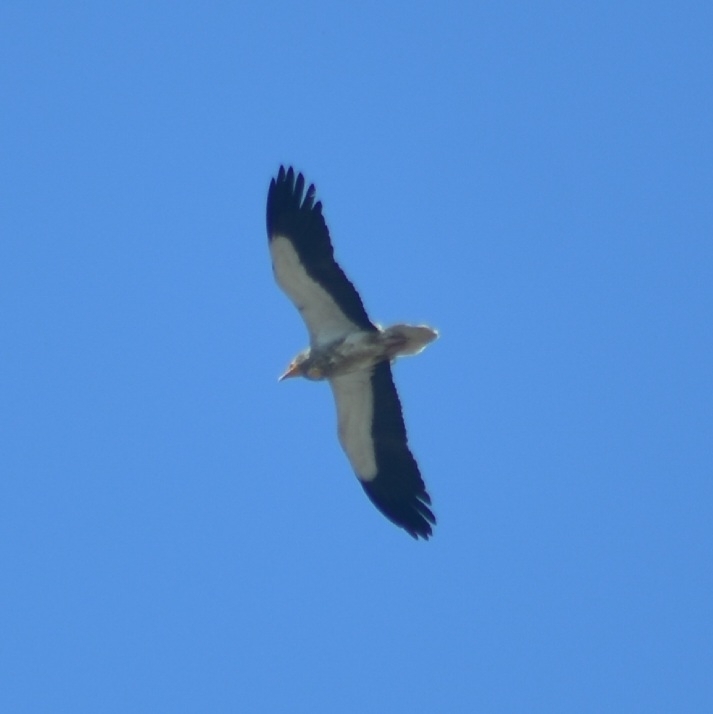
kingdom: Animalia
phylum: Chordata
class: Aves
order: Accipitriformes
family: Accipitridae
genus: Neophron
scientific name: Neophron percnopterus
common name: Egyptian vulture
